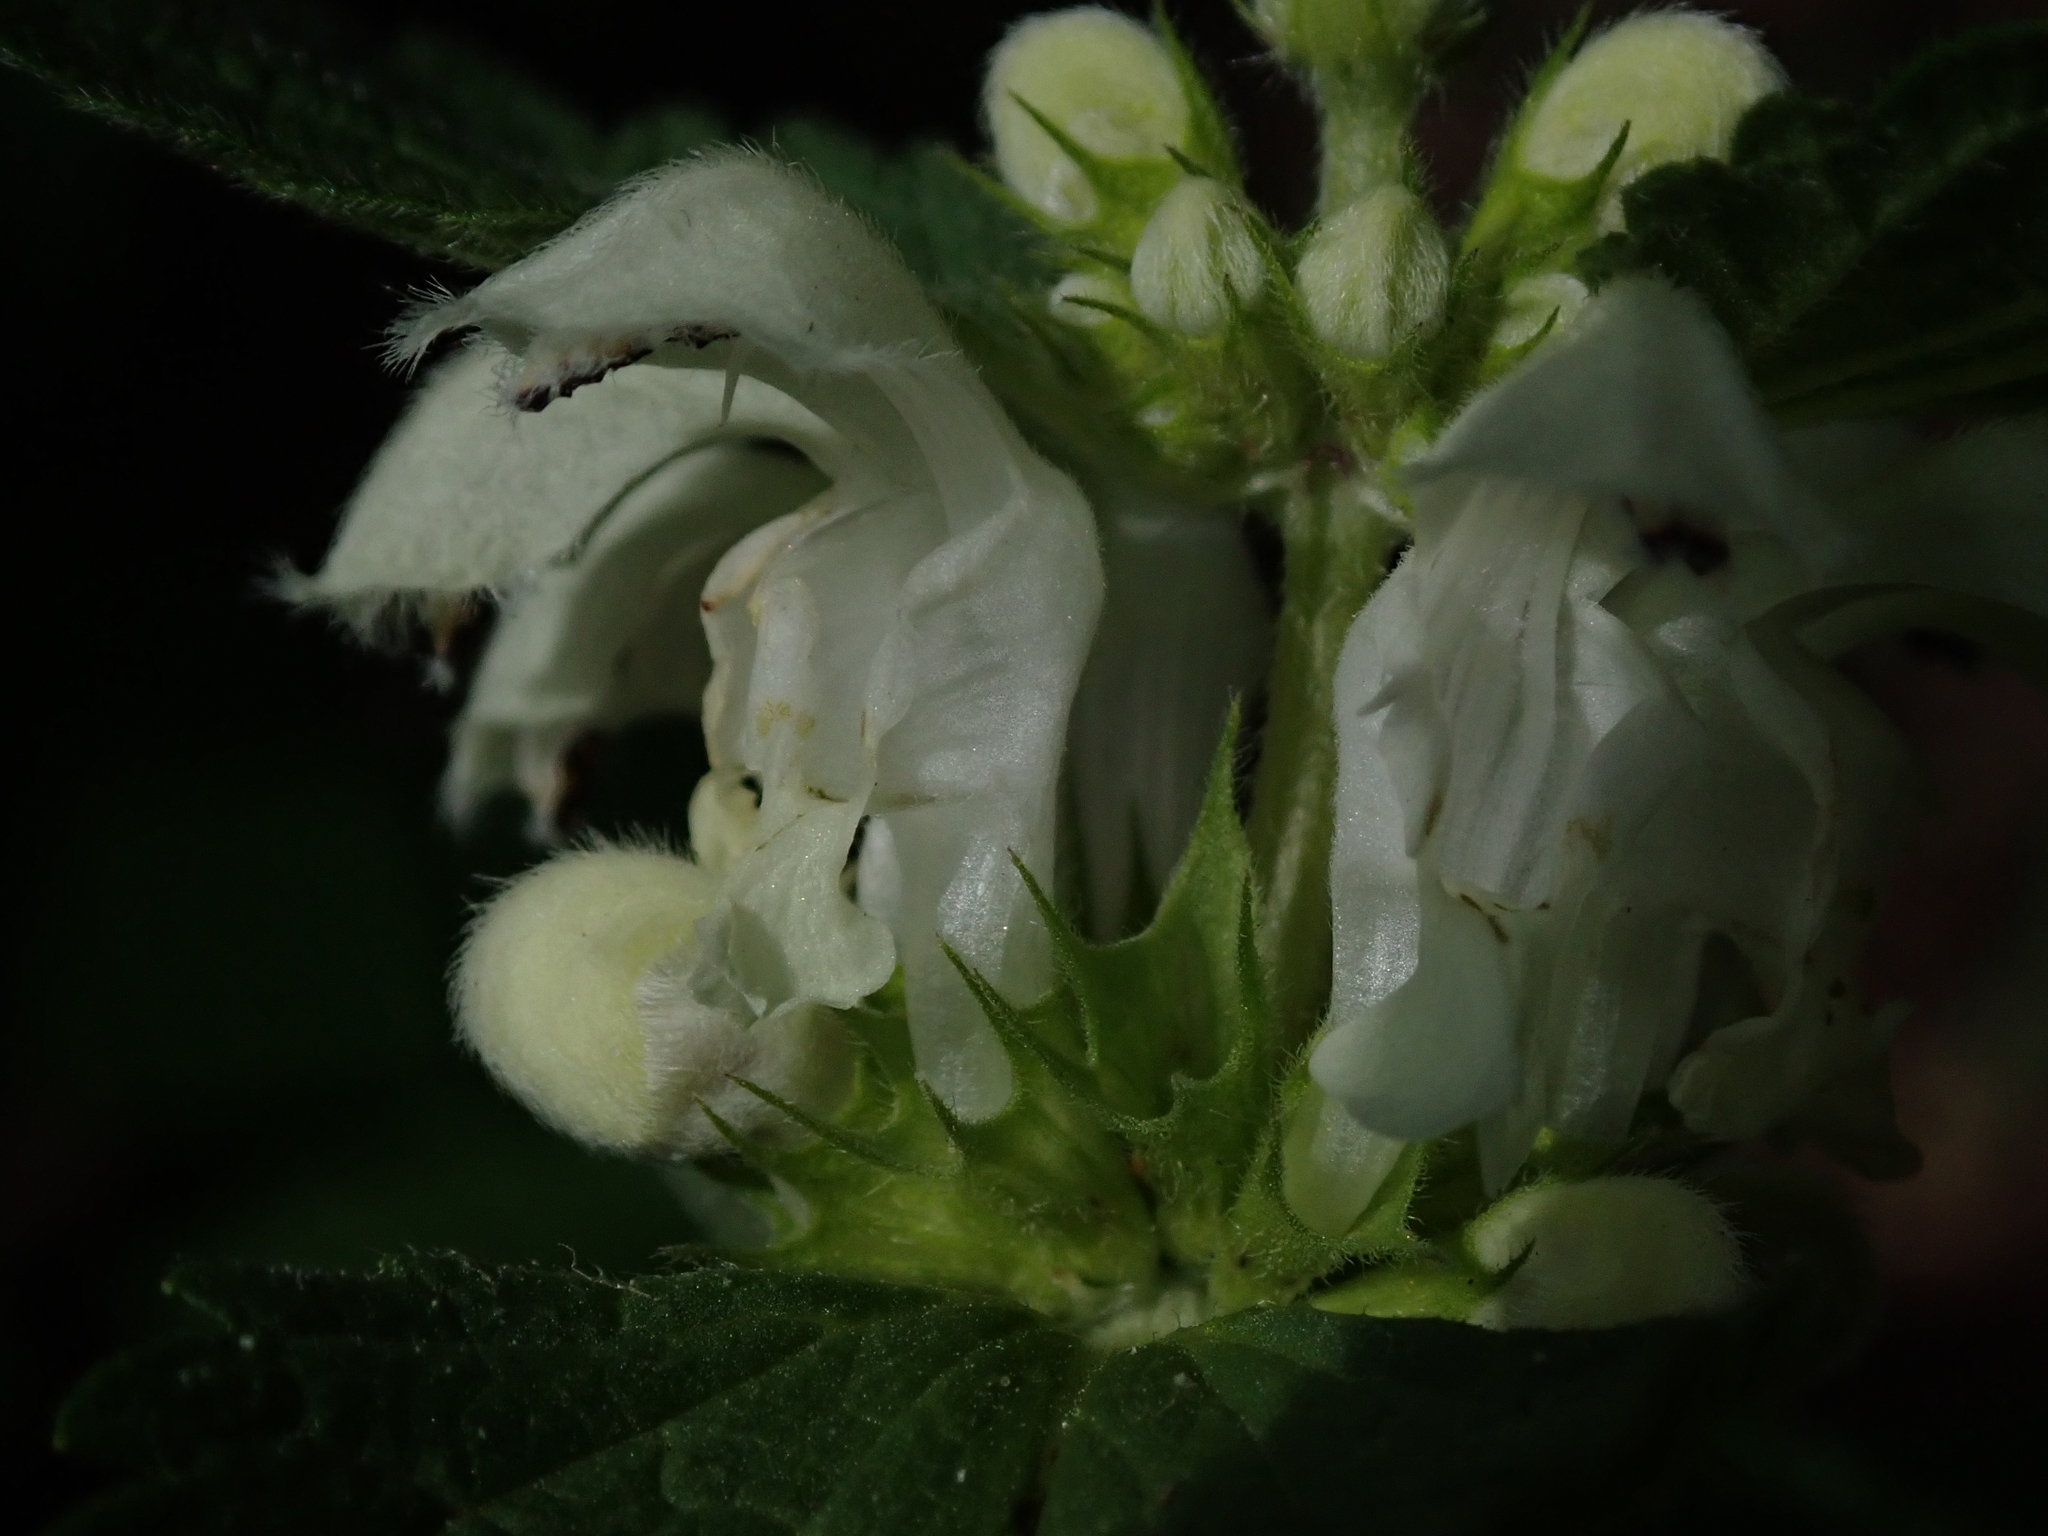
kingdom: Plantae
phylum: Tracheophyta
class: Magnoliopsida
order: Lamiales
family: Lamiaceae
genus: Lamium
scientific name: Lamium album
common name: White dead-nettle
